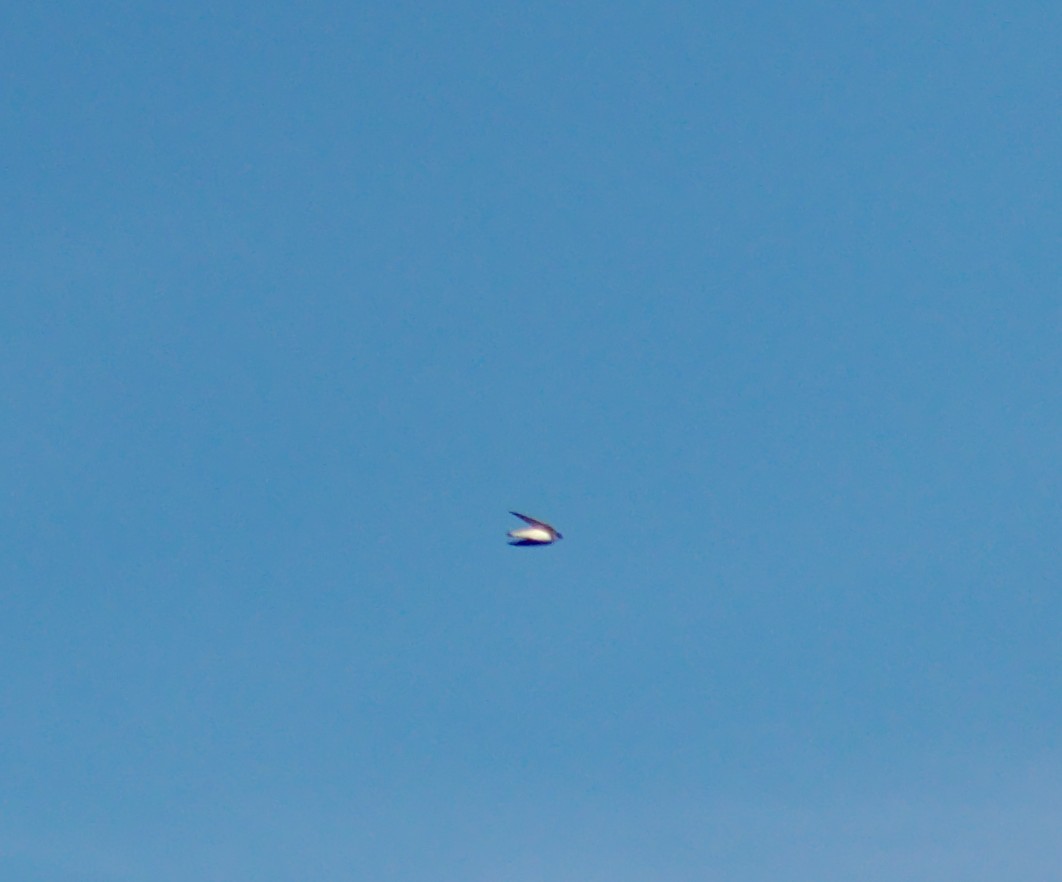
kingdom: Animalia
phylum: Chordata
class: Aves
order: Passeriformes
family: Hirundinidae
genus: Riparia
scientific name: Riparia riparia
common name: Sand martin
